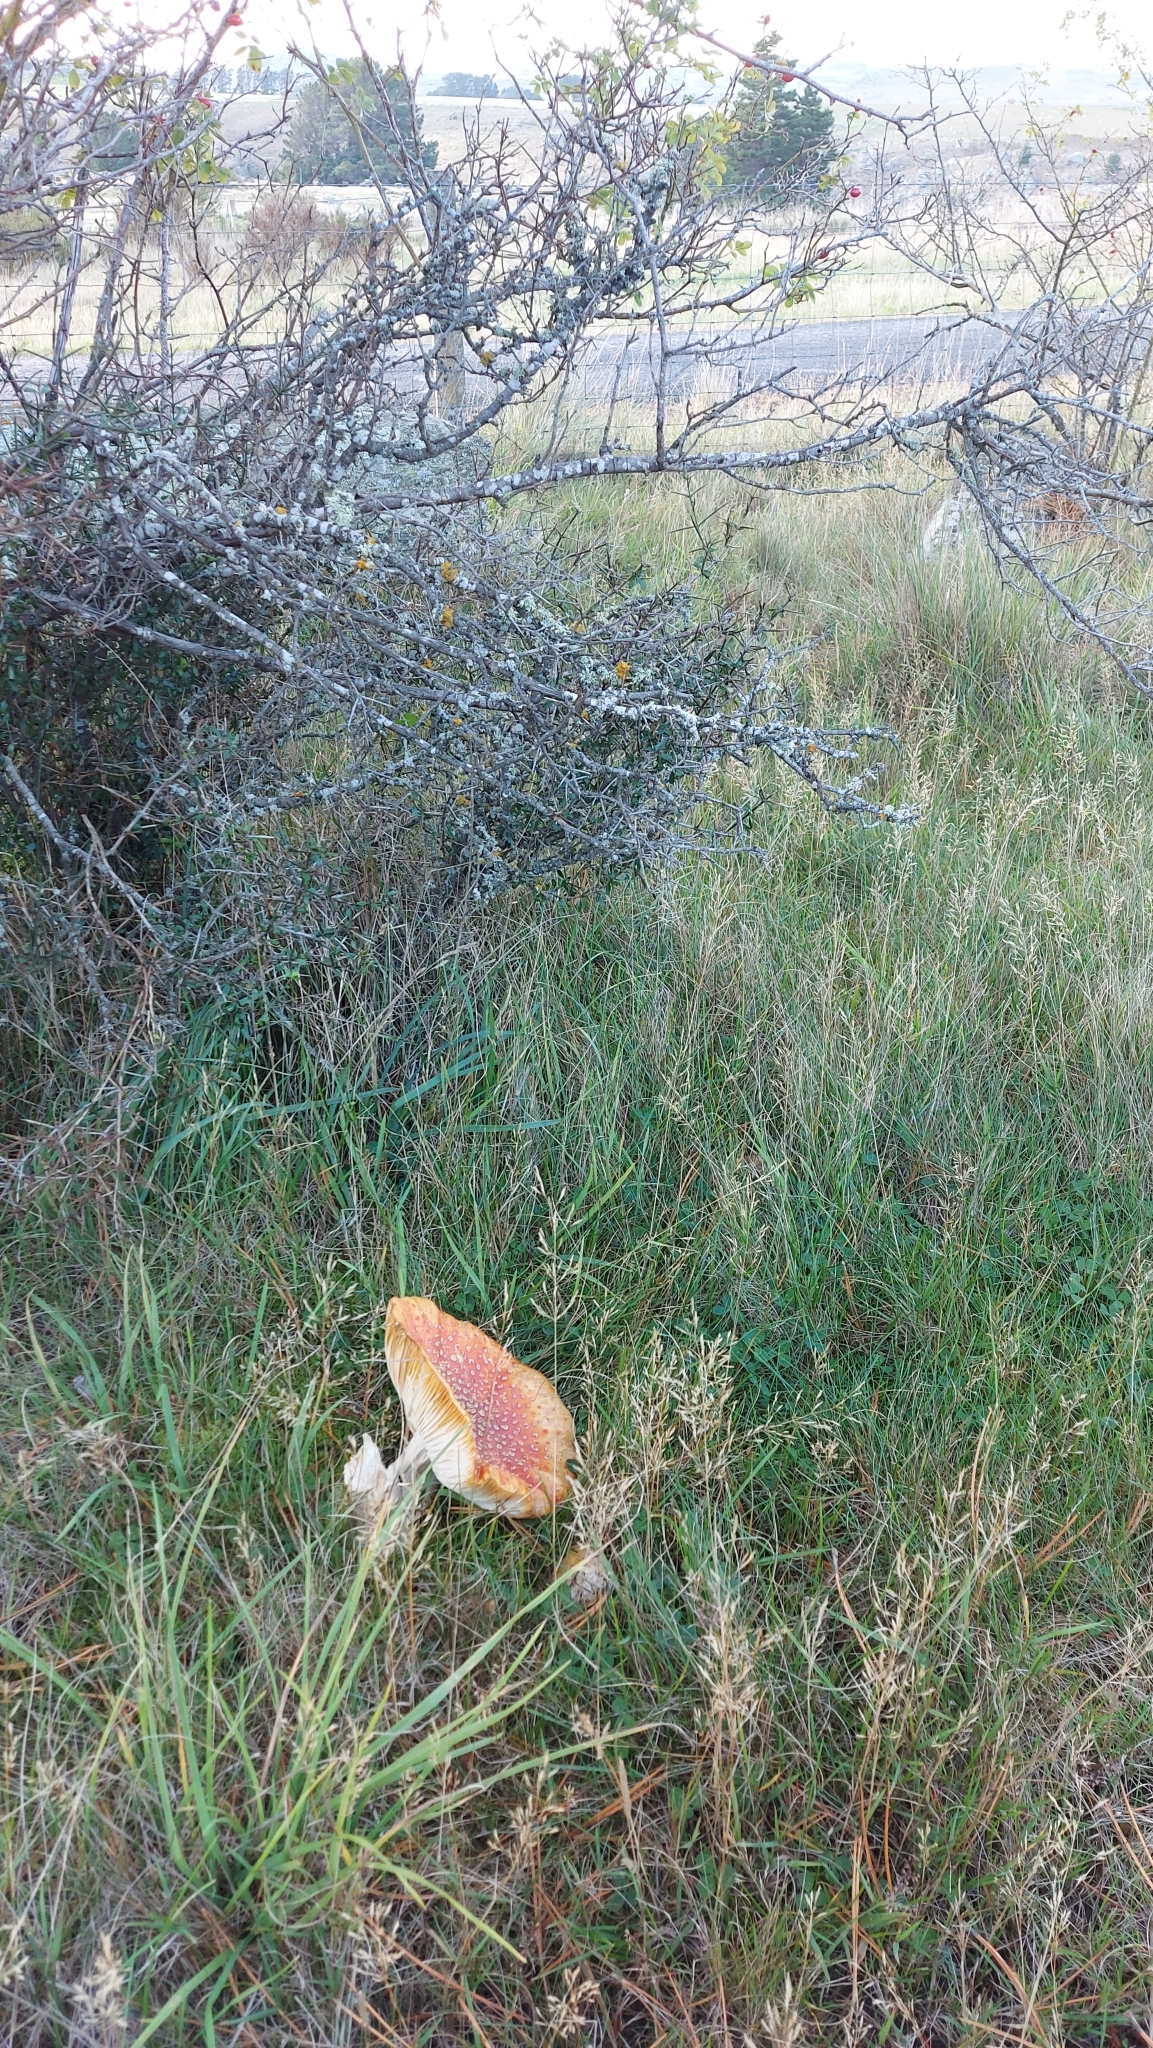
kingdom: Fungi
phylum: Basidiomycota
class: Agaricomycetes
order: Agaricales
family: Amanitaceae
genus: Amanita
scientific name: Amanita muscaria
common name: Fly agaric
